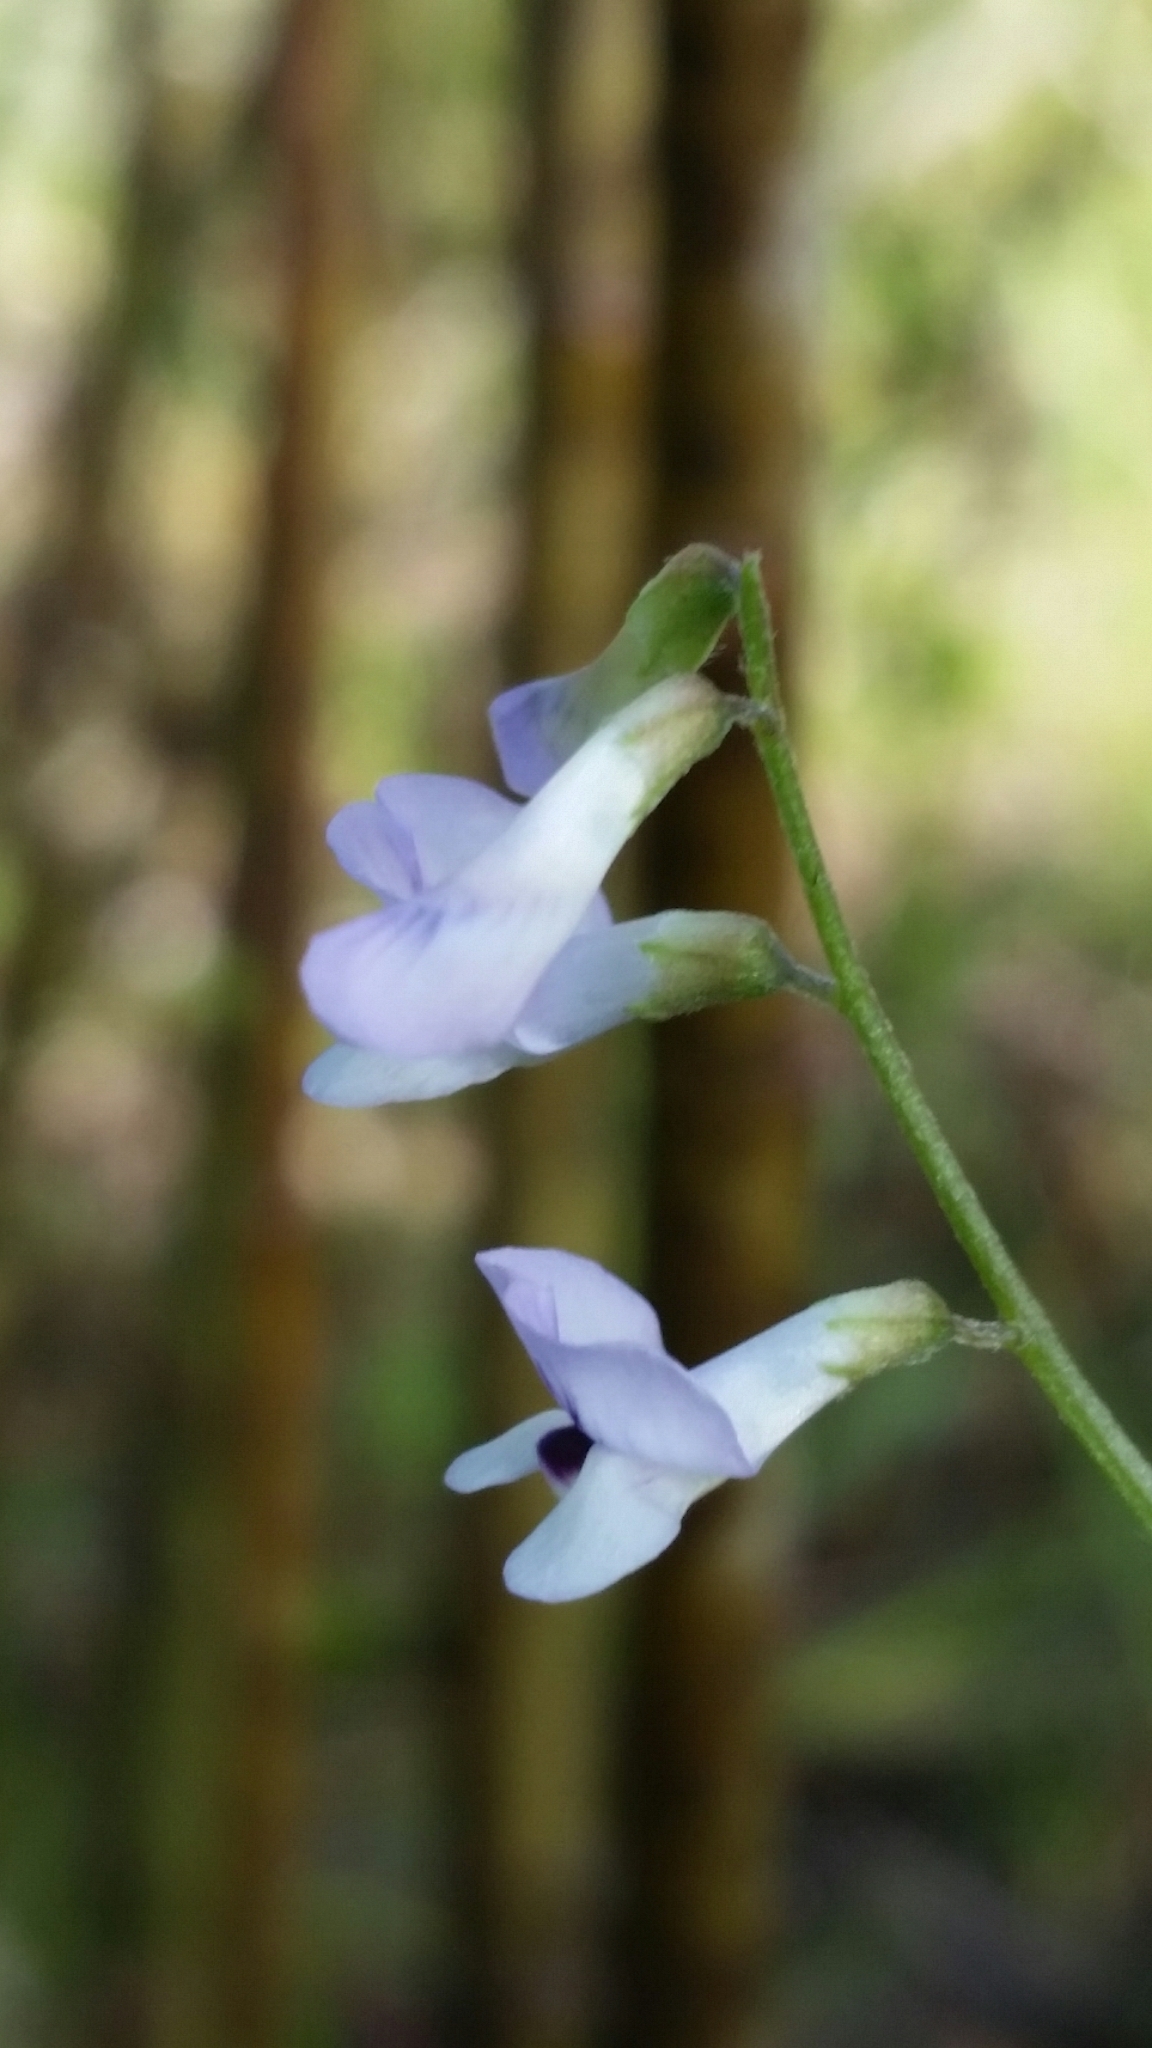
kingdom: Plantae
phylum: Tracheophyta
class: Magnoliopsida
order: Fabales
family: Fabaceae
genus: Vicia
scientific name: Vicia acutifolia
